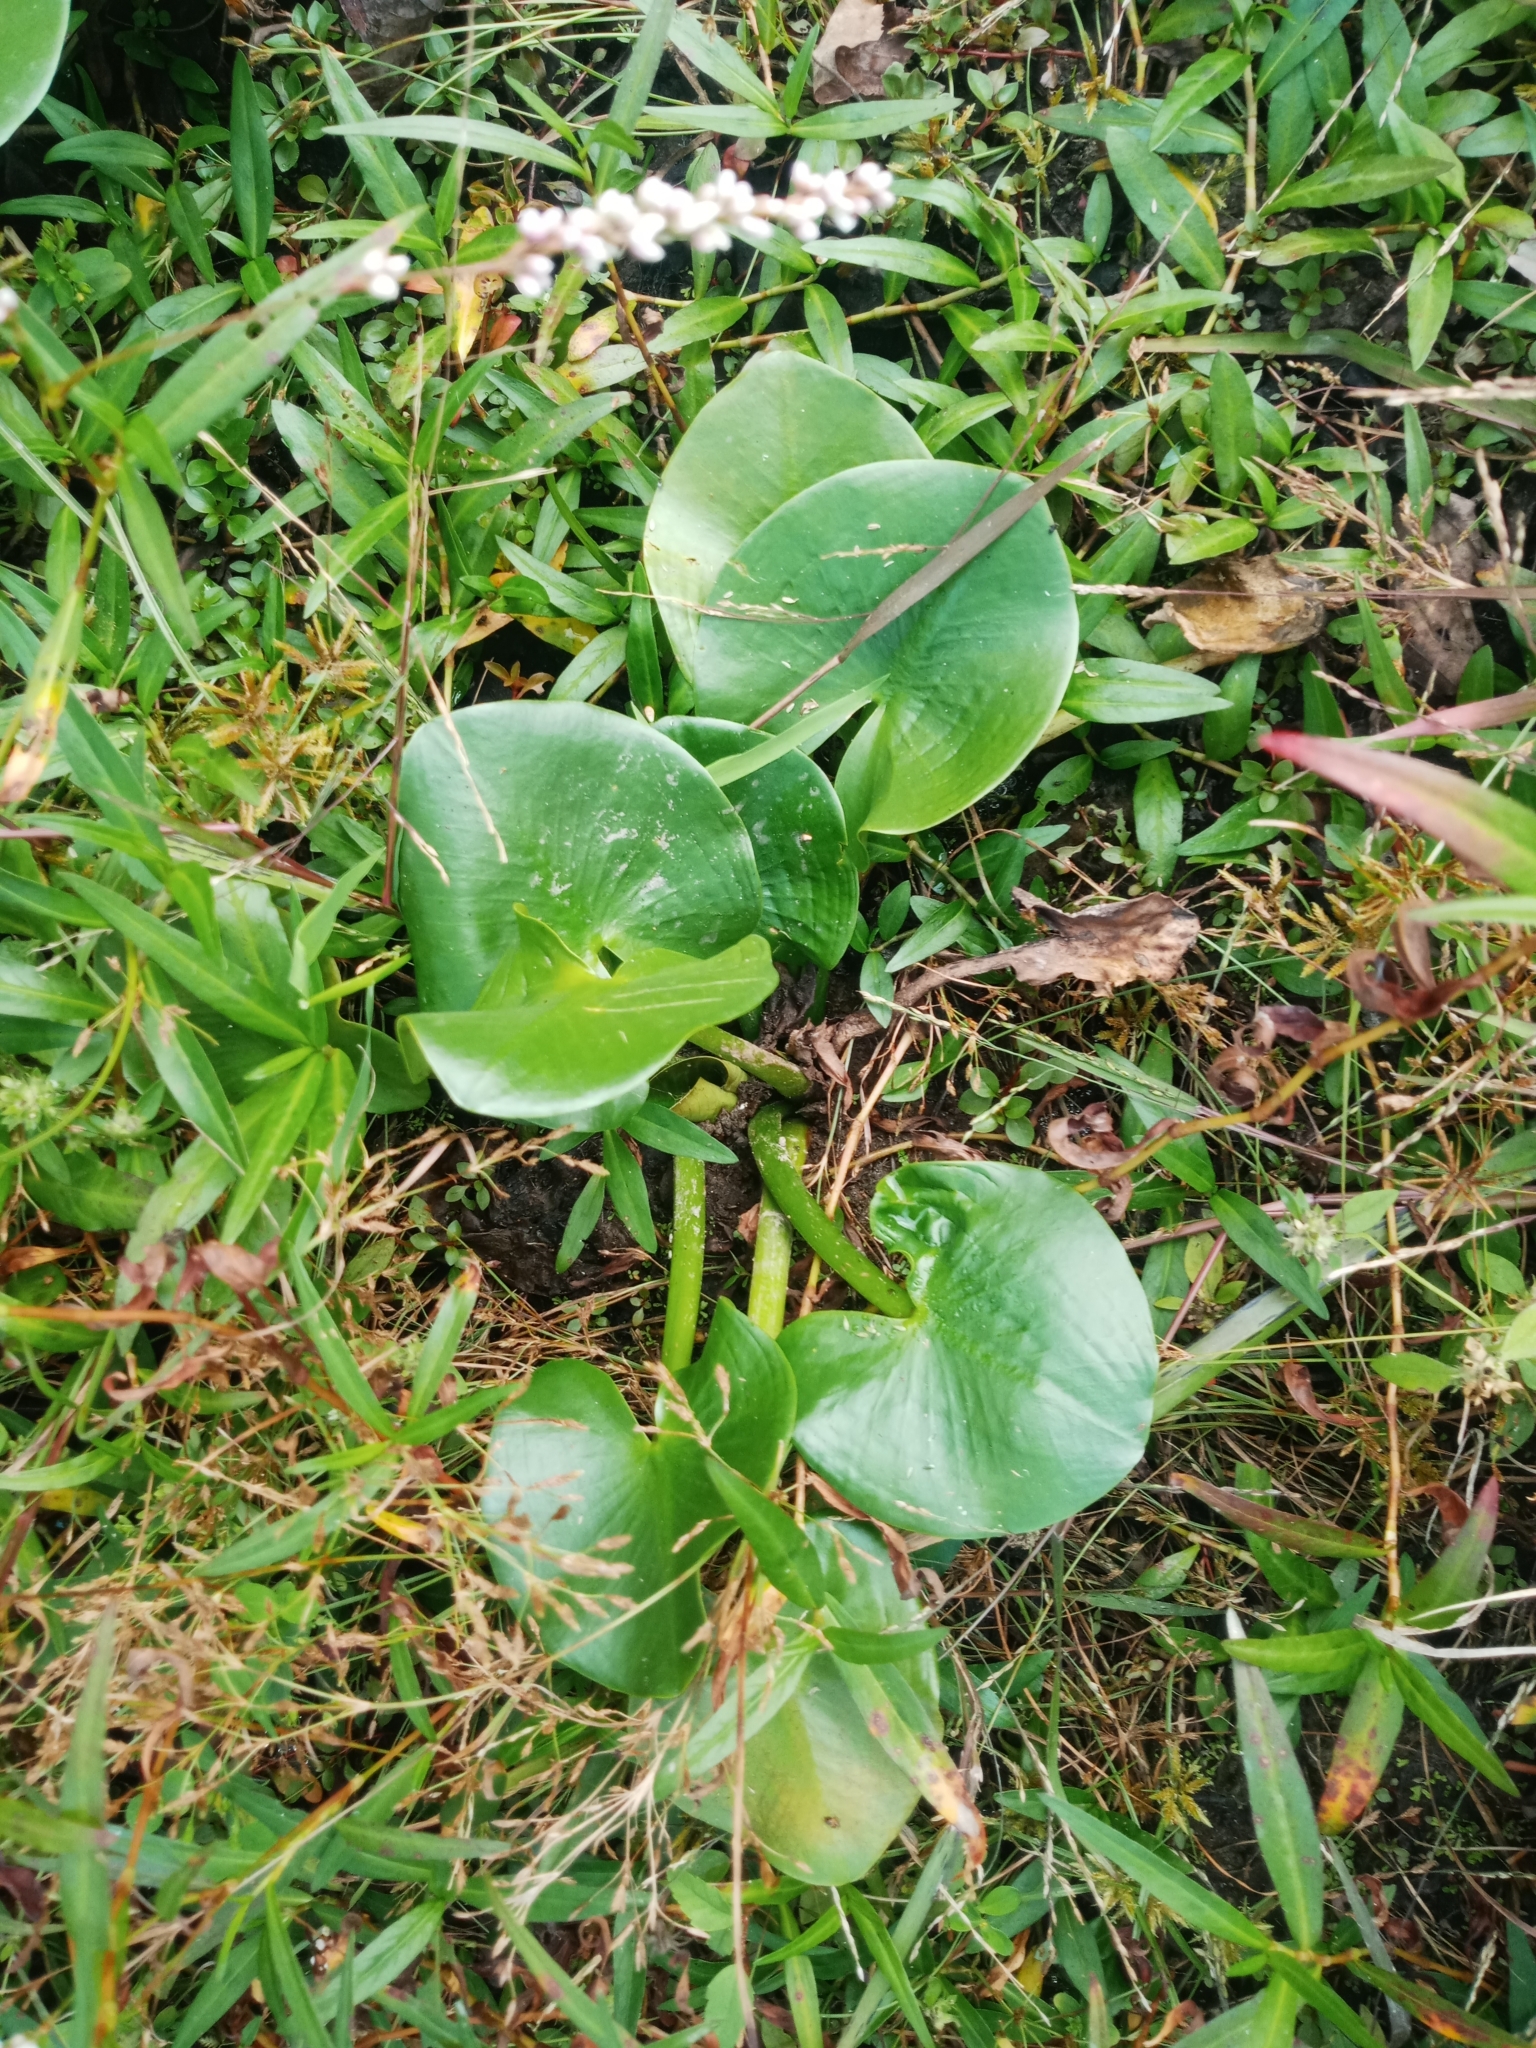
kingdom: Plantae
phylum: Tracheophyta
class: Magnoliopsida
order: Nymphaeales
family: Nymphaeaceae
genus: Nuphar
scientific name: Nuphar advena
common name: Spatter-dock
